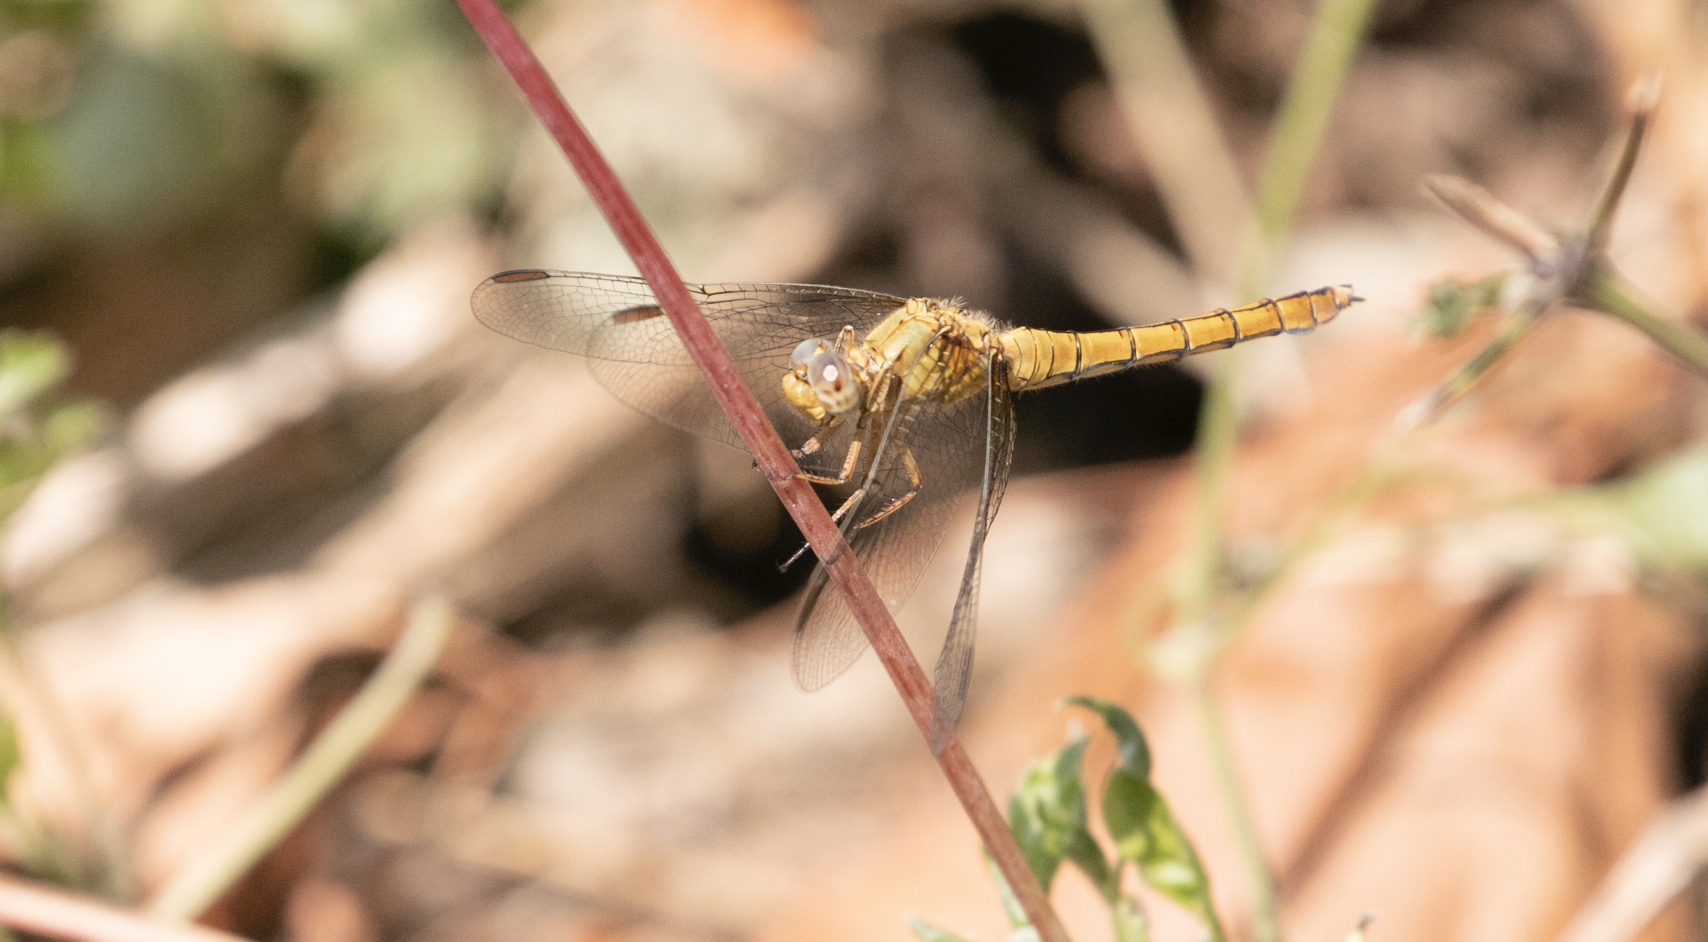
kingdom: Animalia
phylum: Arthropoda
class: Insecta
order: Odonata
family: Libellulidae
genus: Orthetrum
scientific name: Orthetrum coerulescens
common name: Keeled skimmer
